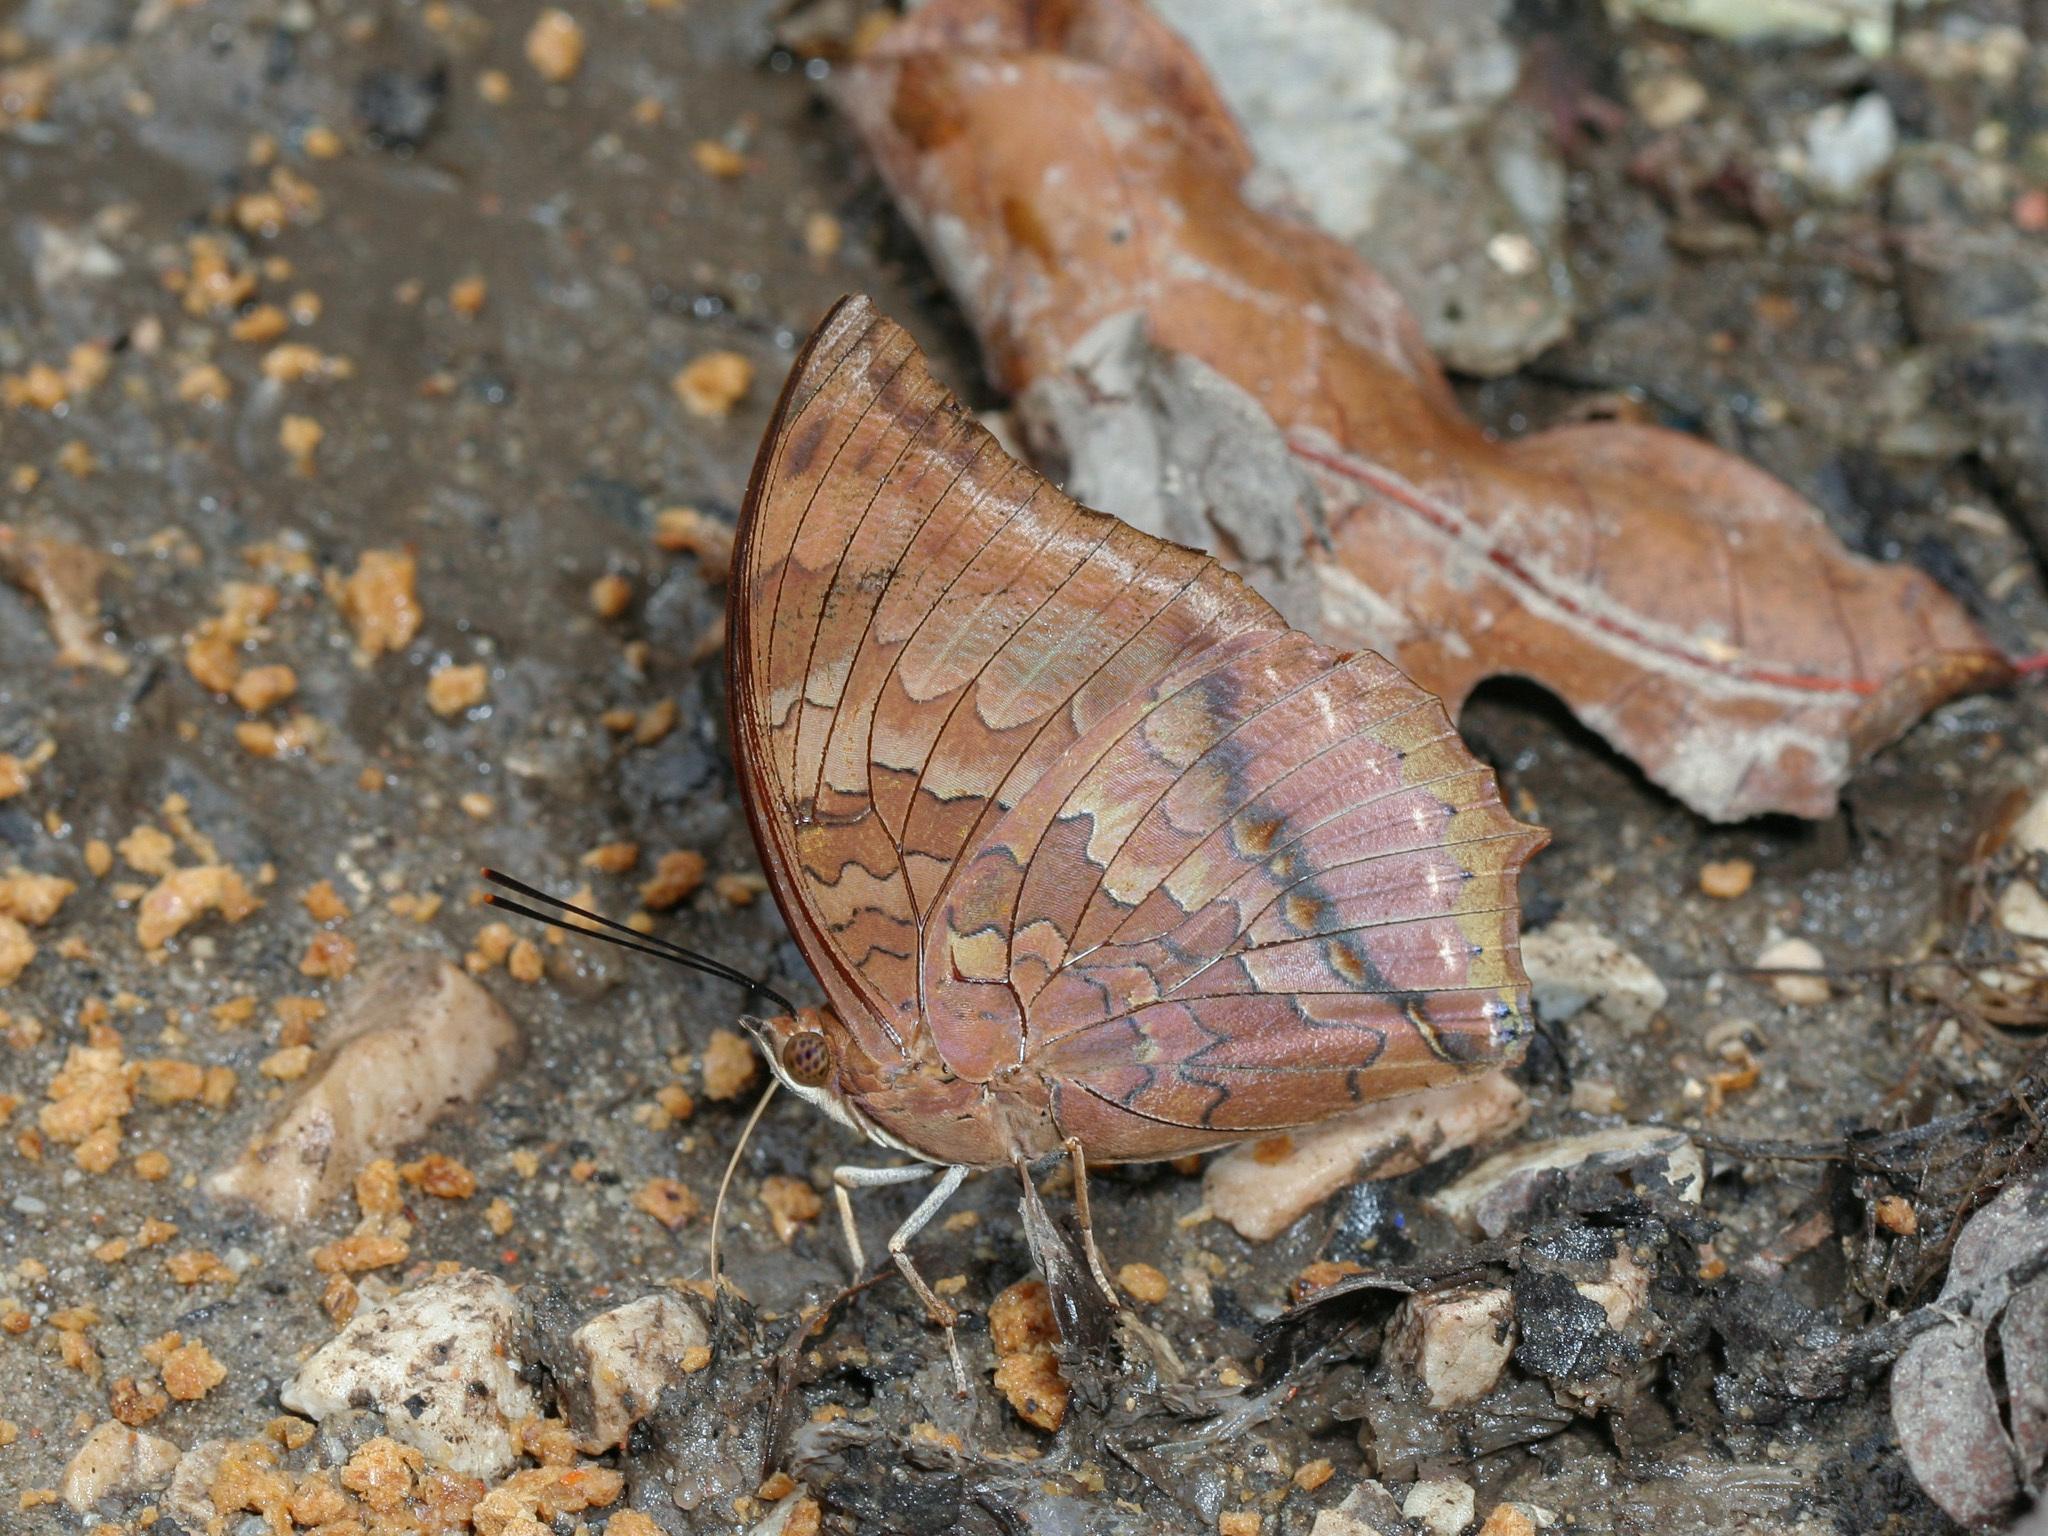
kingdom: Animalia
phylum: Arthropoda
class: Insecta
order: Lepidoptera
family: Nymphalidae
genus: Charaxes
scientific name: Charaxes bernardus
